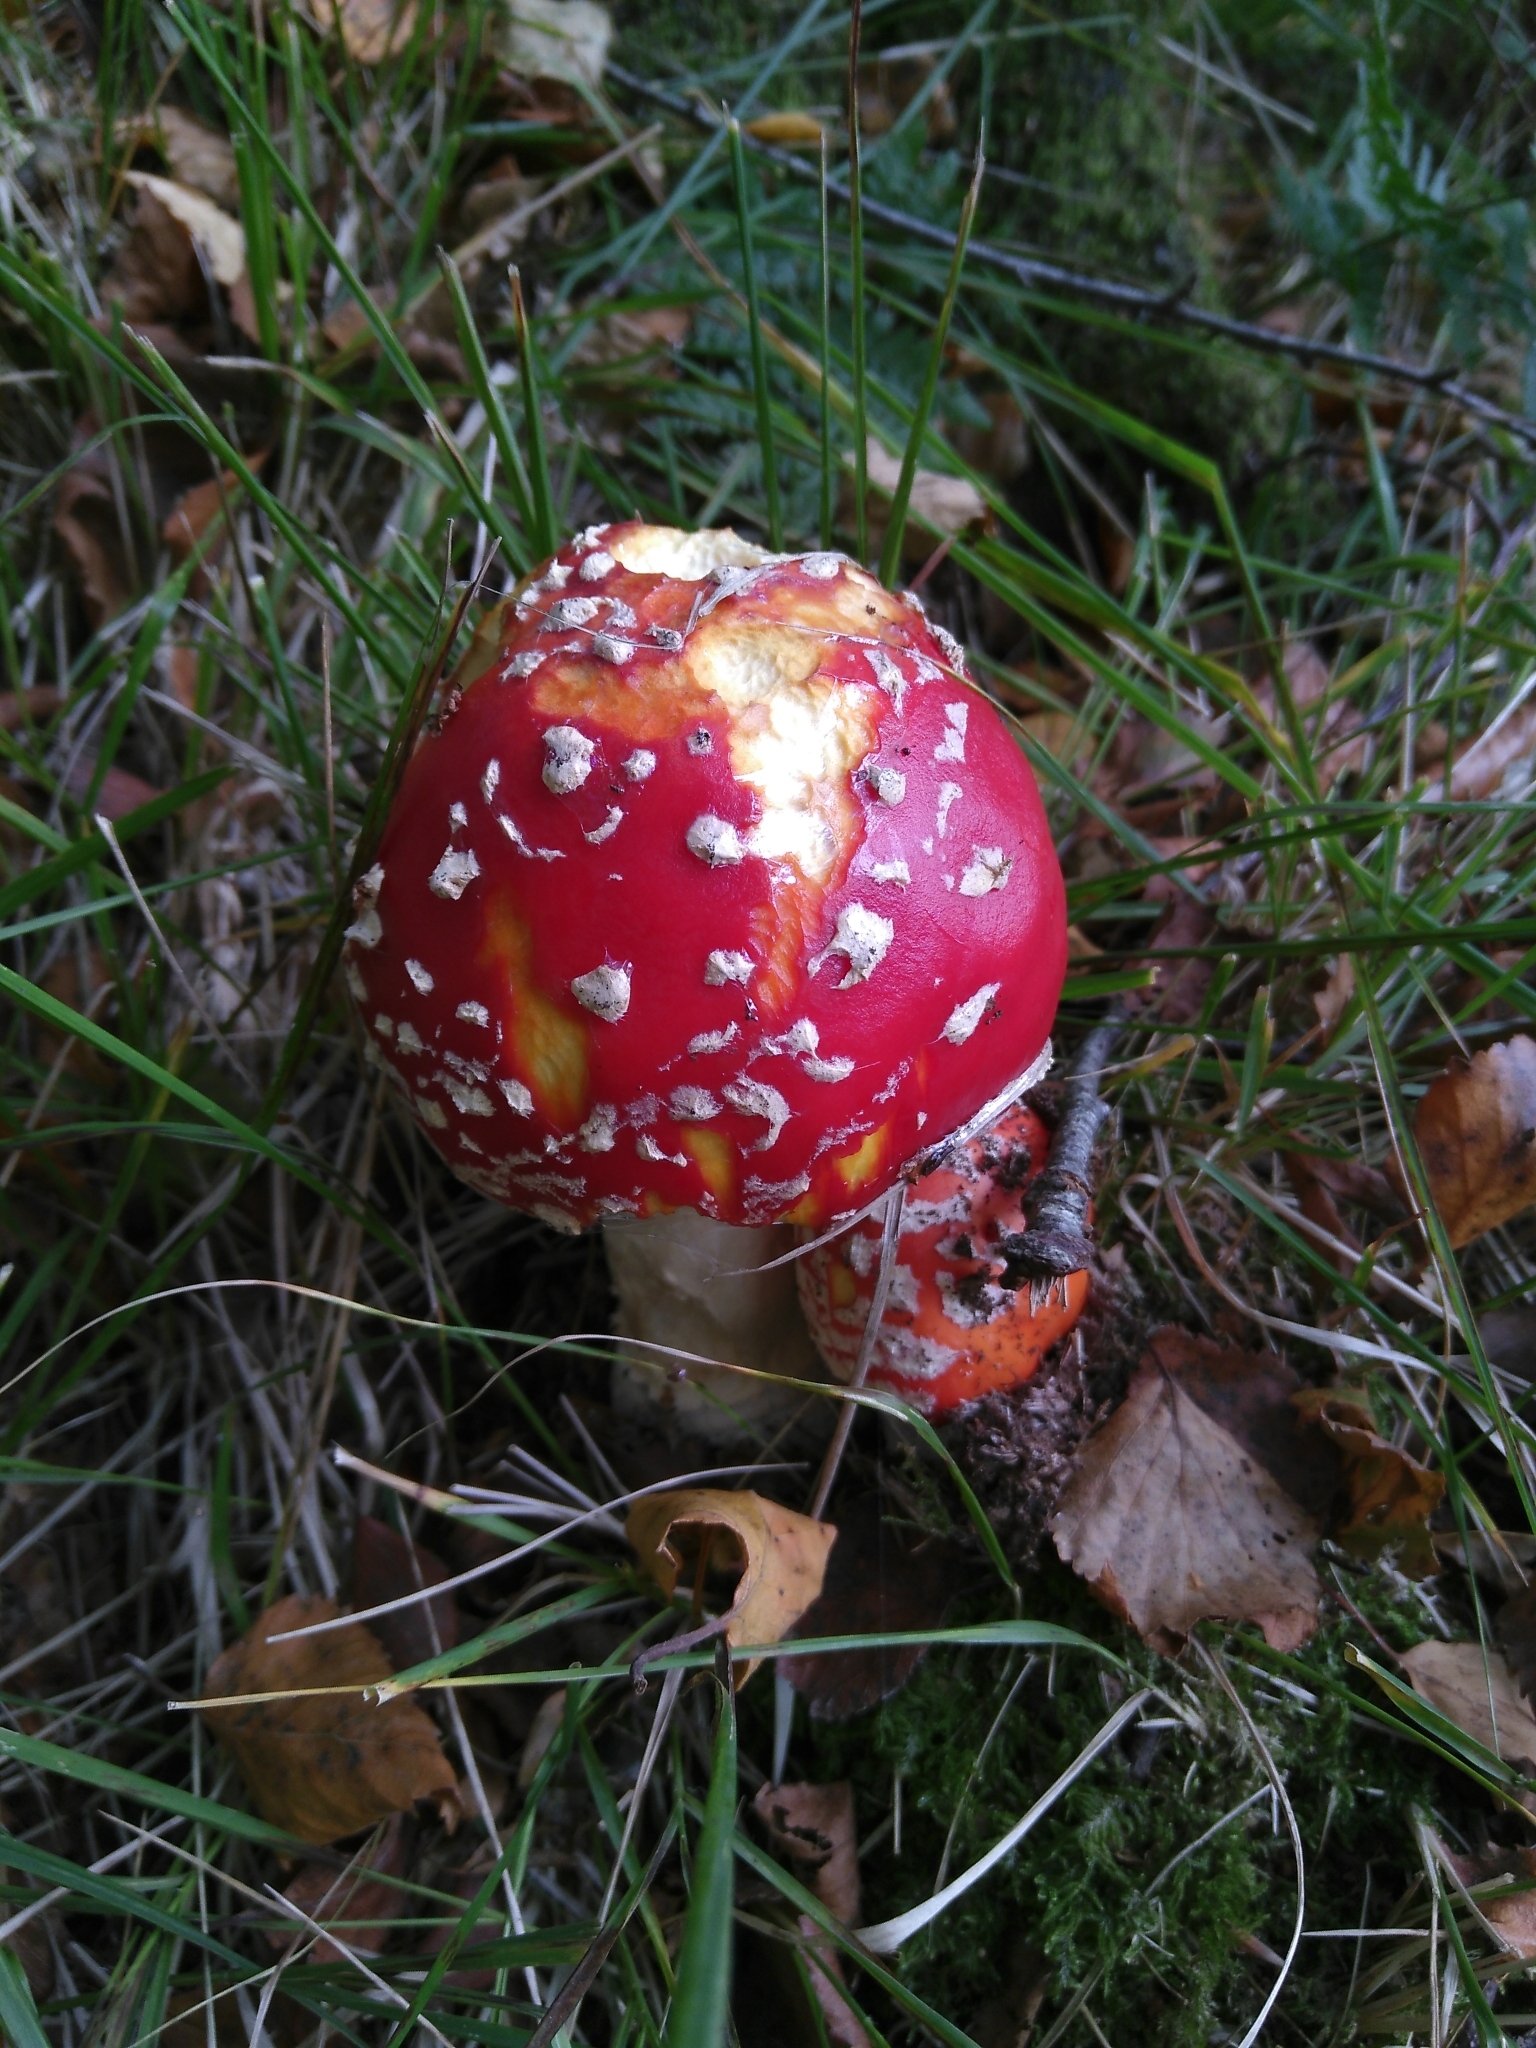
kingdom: Fungi
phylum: Basidiomycota
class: Agaricomycetes
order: Agaricales
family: Amanitaceae
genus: Amanita
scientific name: Amanita muscaria
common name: Fly agaric
